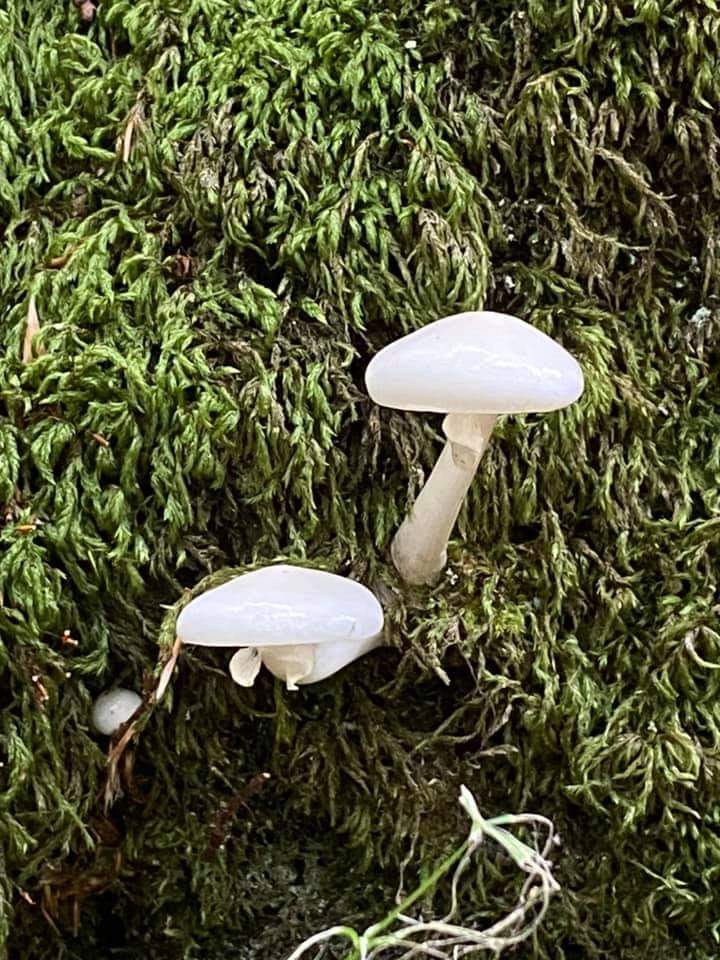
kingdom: Fungi
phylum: Basidiomycota
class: Agaricomycetes
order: Agaricales
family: Physalacriaceae
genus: Mucidula
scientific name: Mucidula mucida
